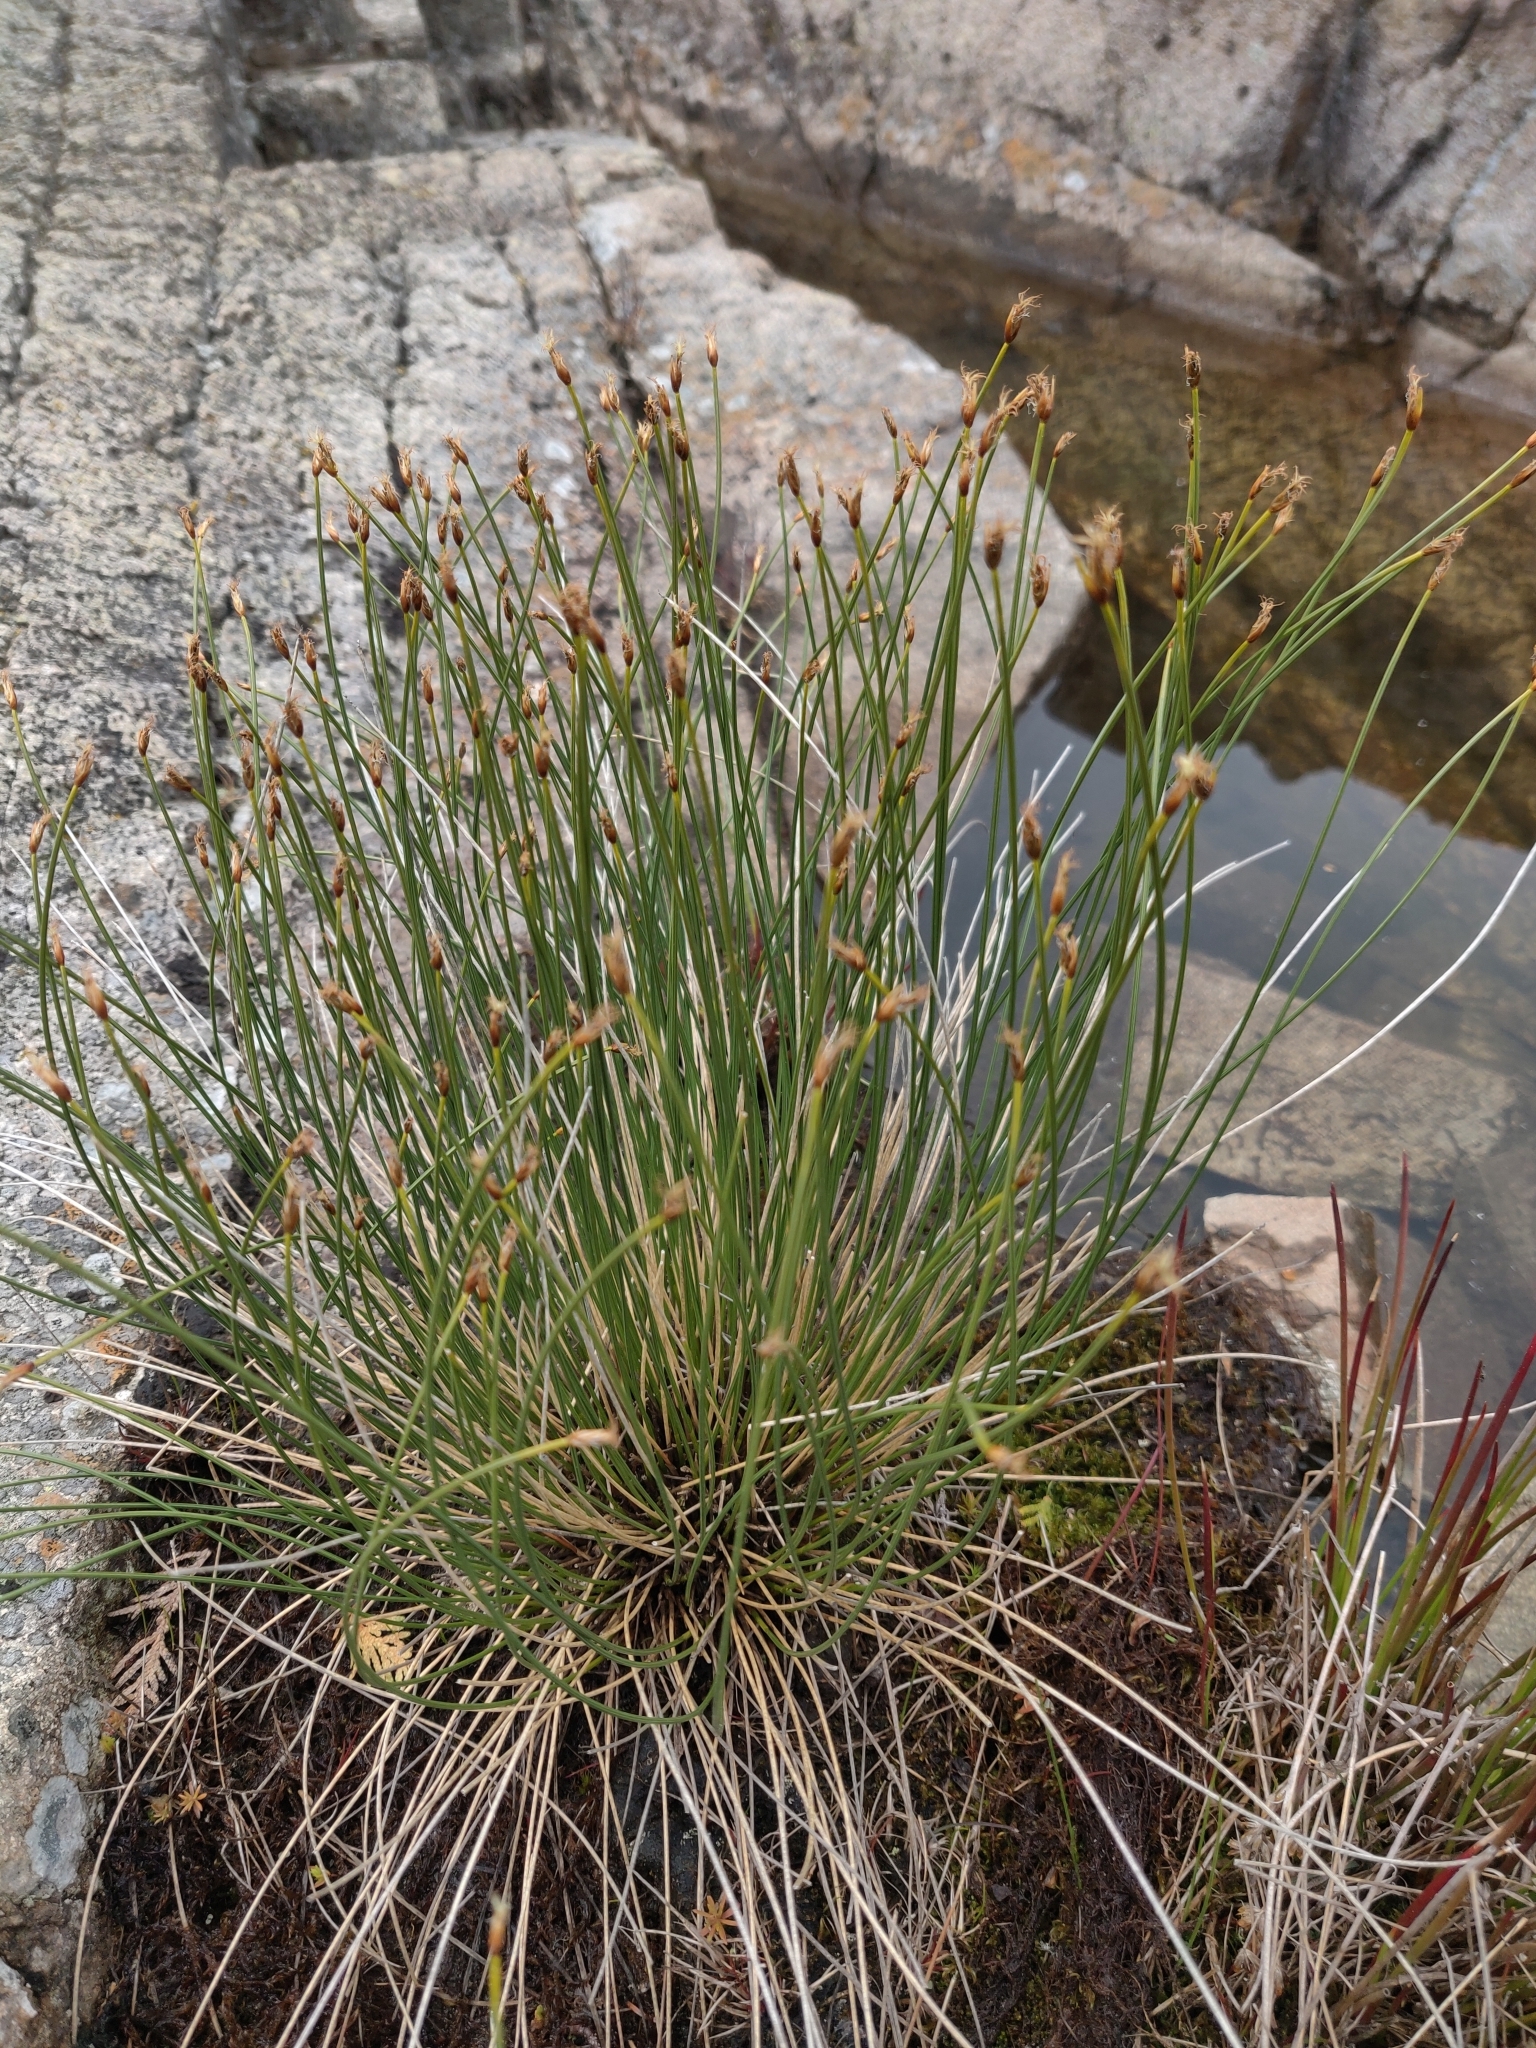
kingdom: Plantae
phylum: Tracheophyta
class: Liliopsida
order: Poales
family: Cyperaceae
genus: Trichophorum
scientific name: Trichophorum cespitosum
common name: Cespitose bulrush
